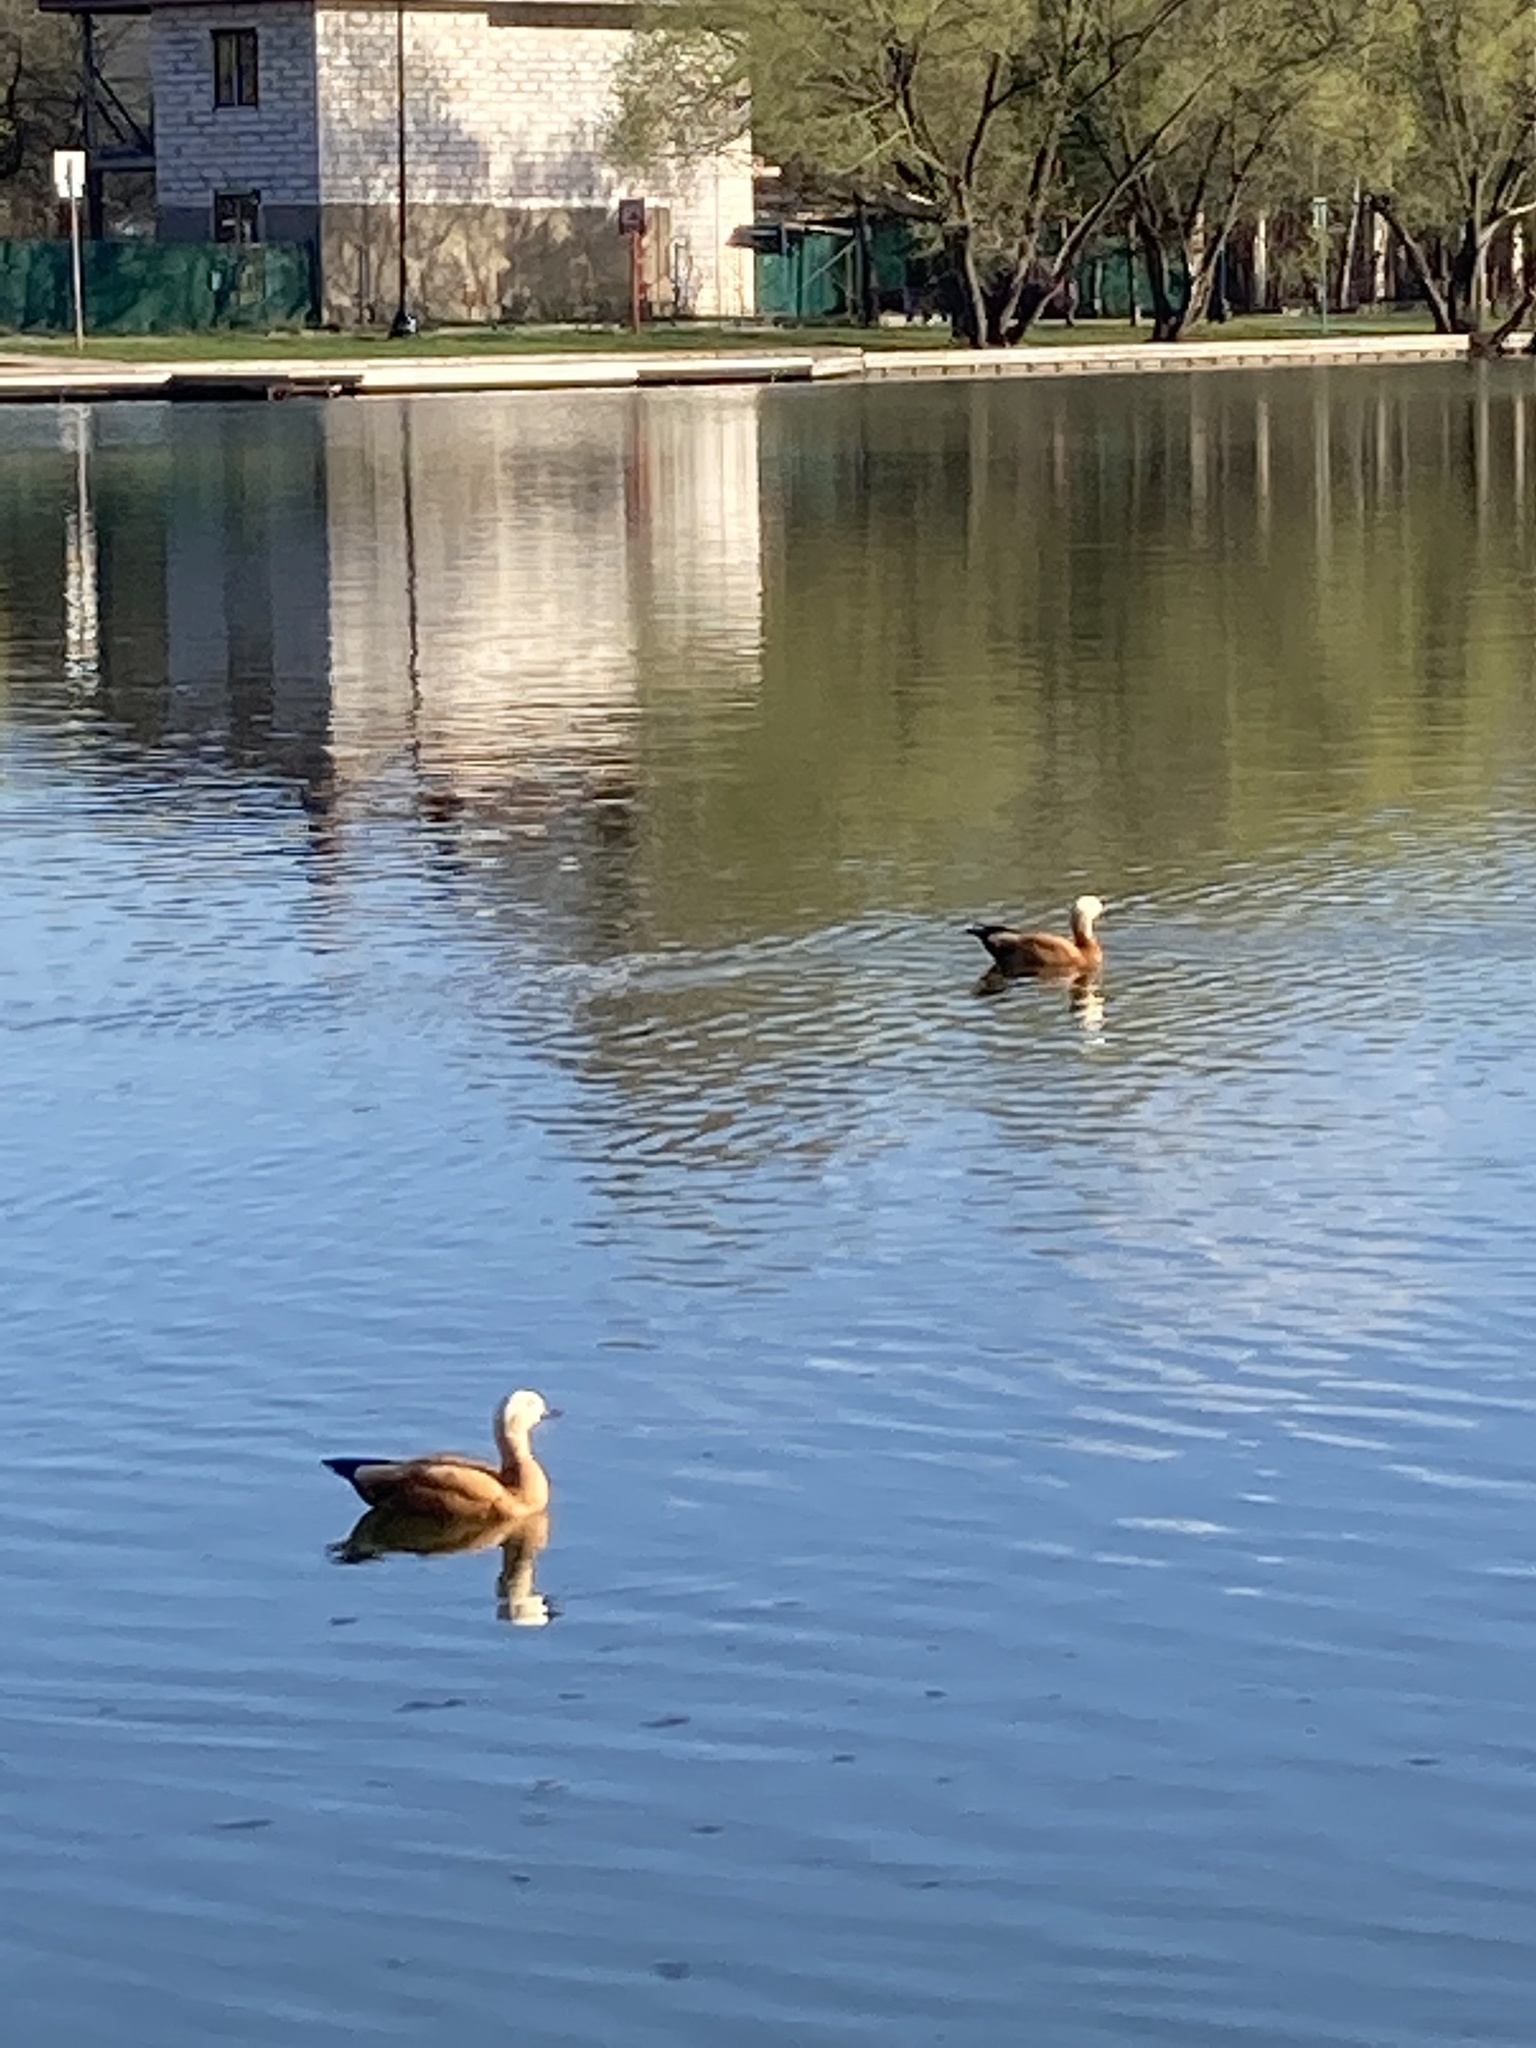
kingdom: Animalia
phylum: Chordata
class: Aves
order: Anseriformes
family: Anatidae
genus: Tadorna
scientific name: Tadorna ferruginea
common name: Ruddy shelduck
